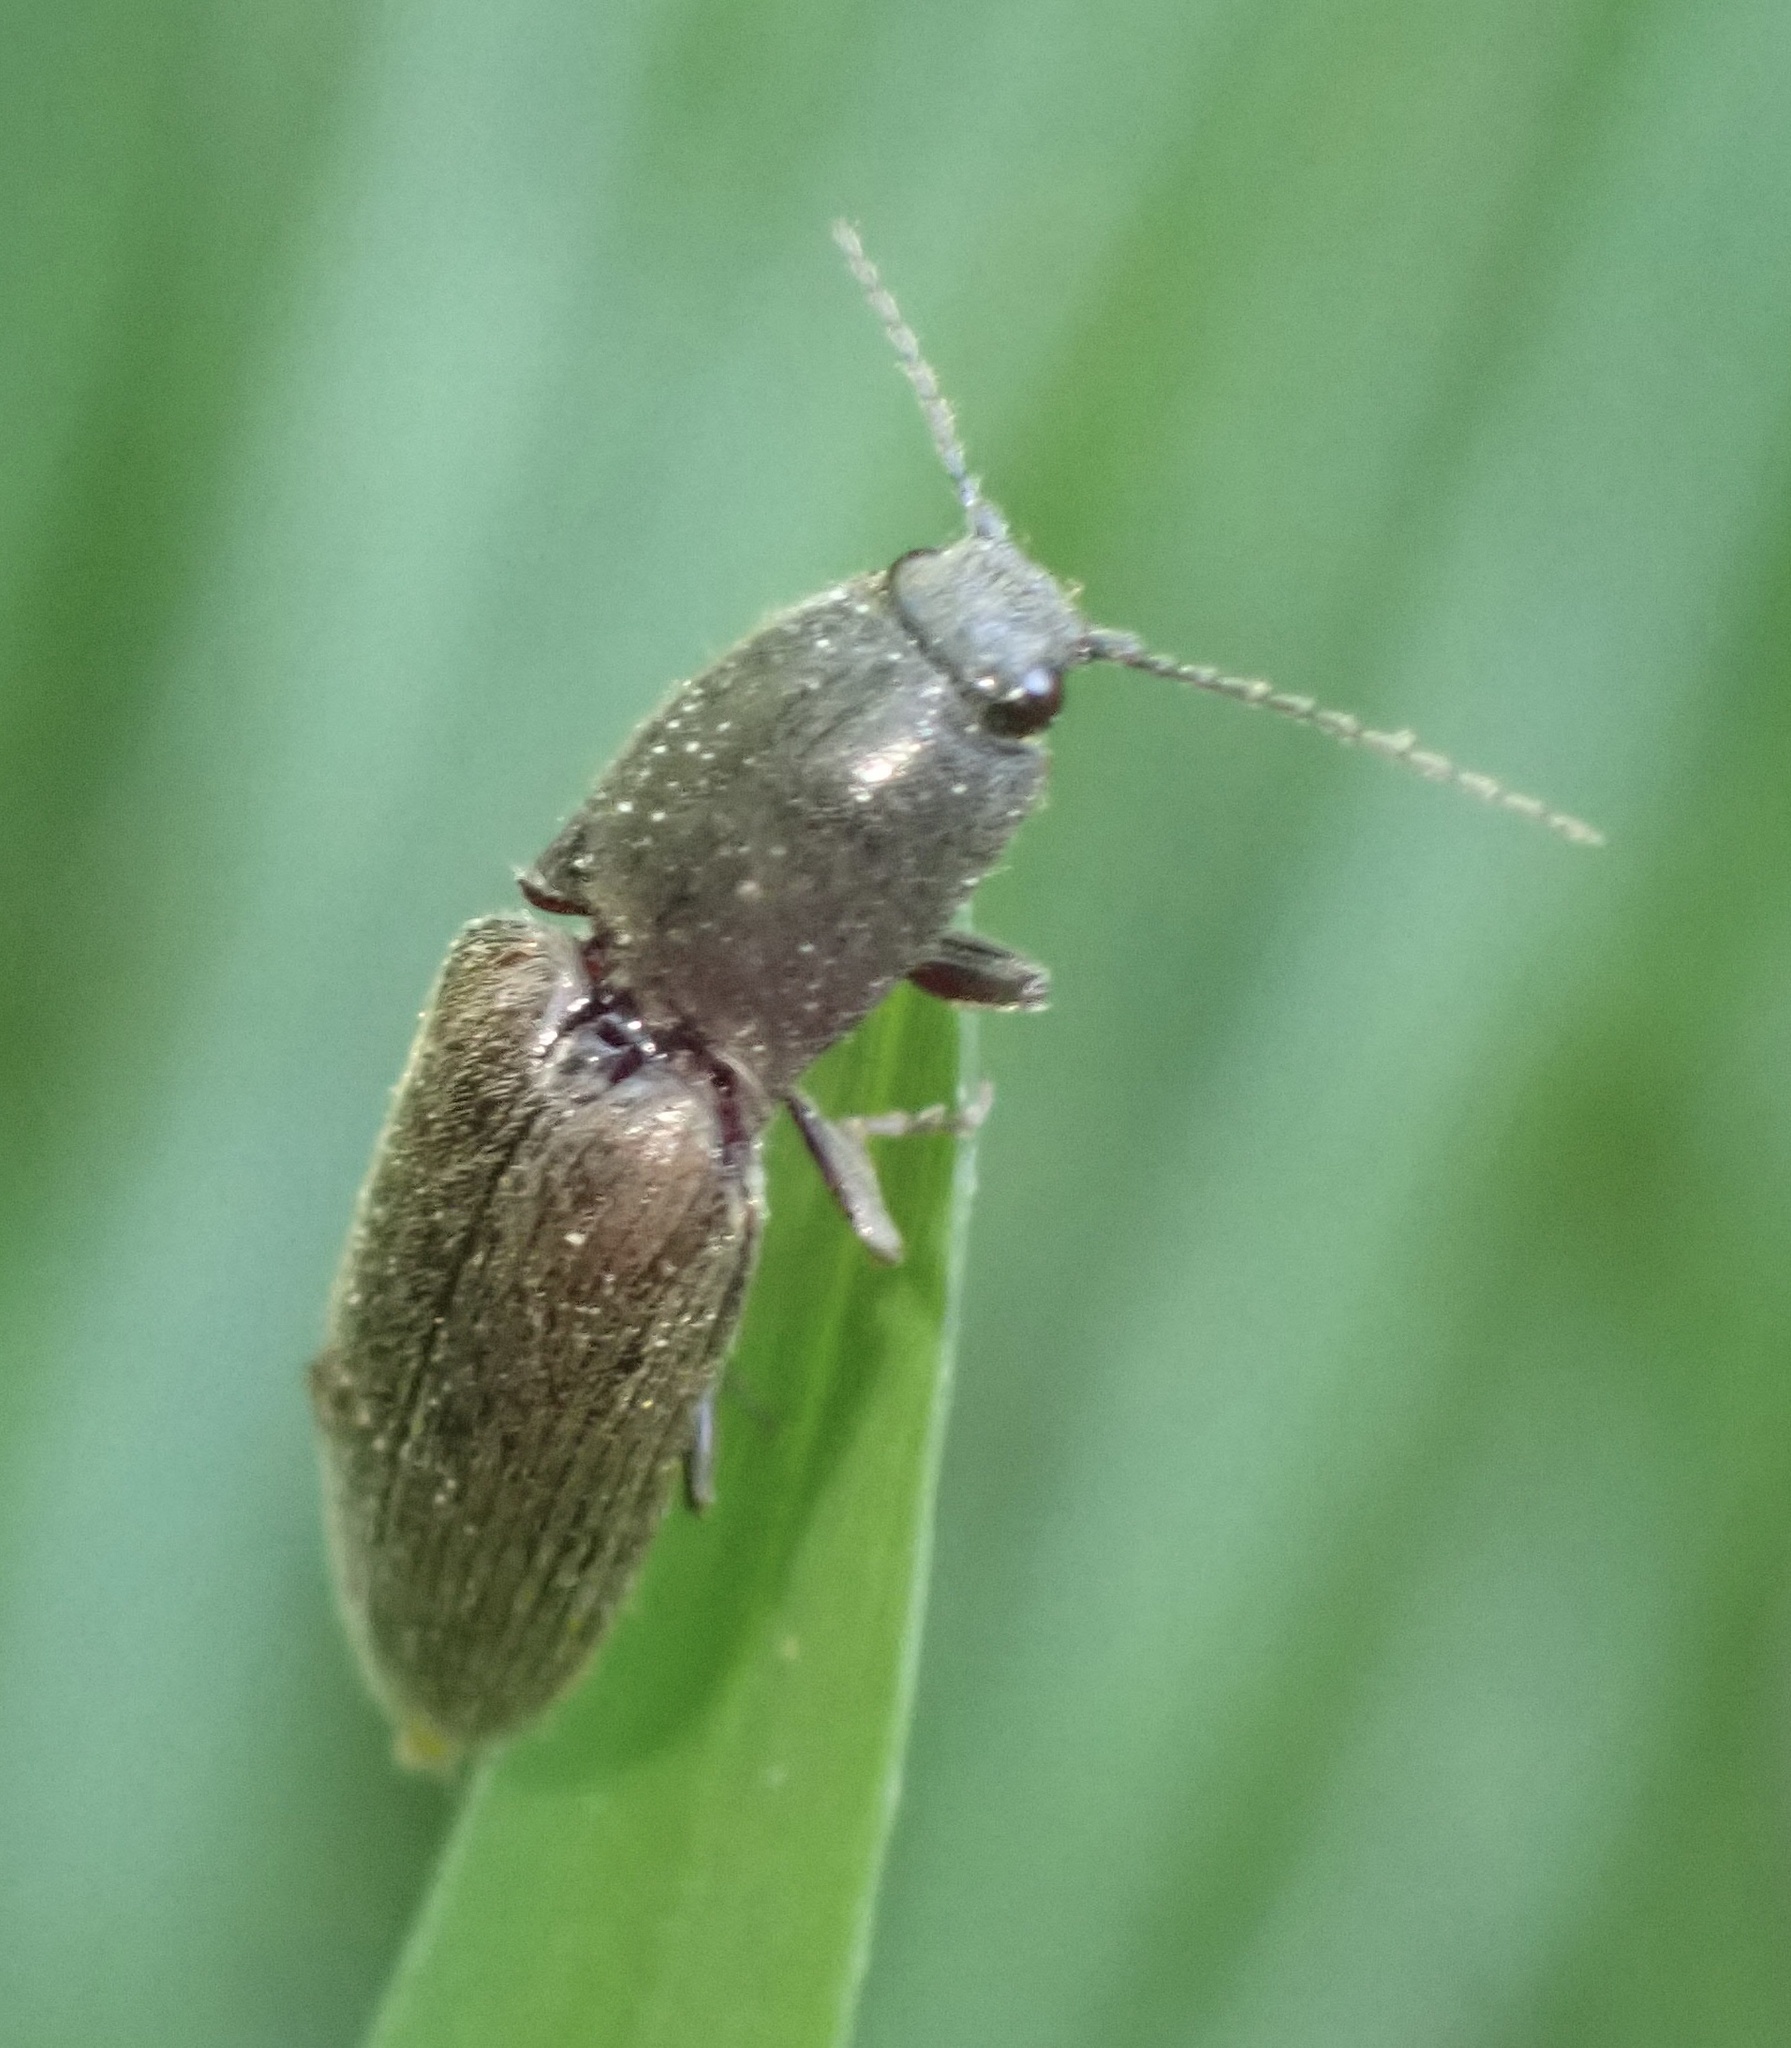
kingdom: Animalia
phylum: Arthropoda
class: Insecta
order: Coleoptera
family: Elateridae
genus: Athous
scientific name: Athous haemorrhoidalis
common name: Red-brown click beetle
